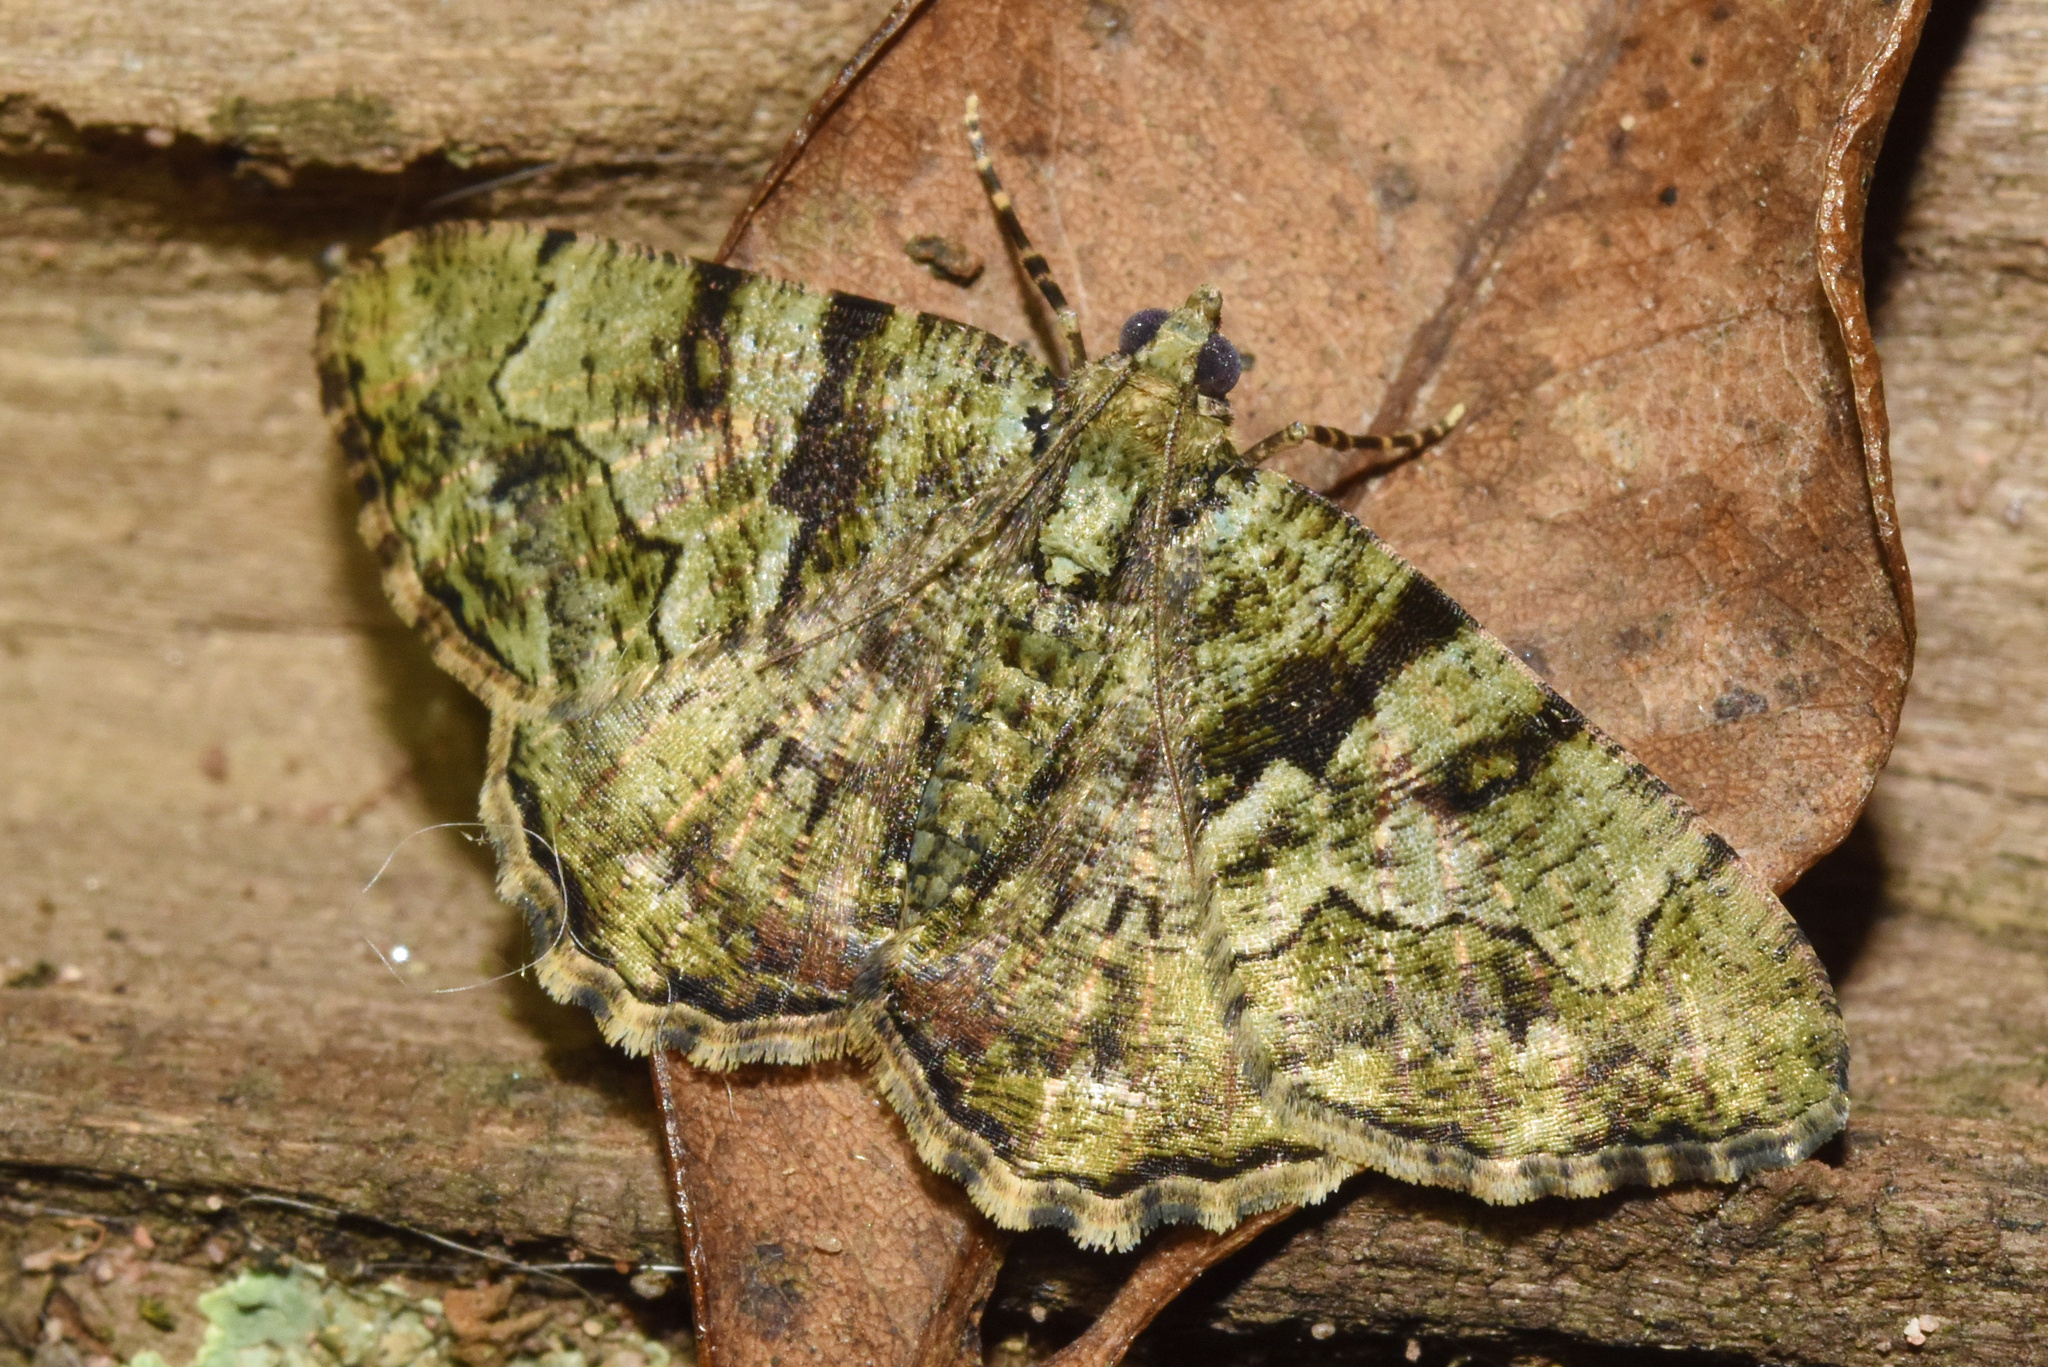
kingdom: Animalia
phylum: Arthropoda
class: Insecta
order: Lepidoptera
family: Geometridae
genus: Xylopteryx
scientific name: Xylopteryx prasinaria
